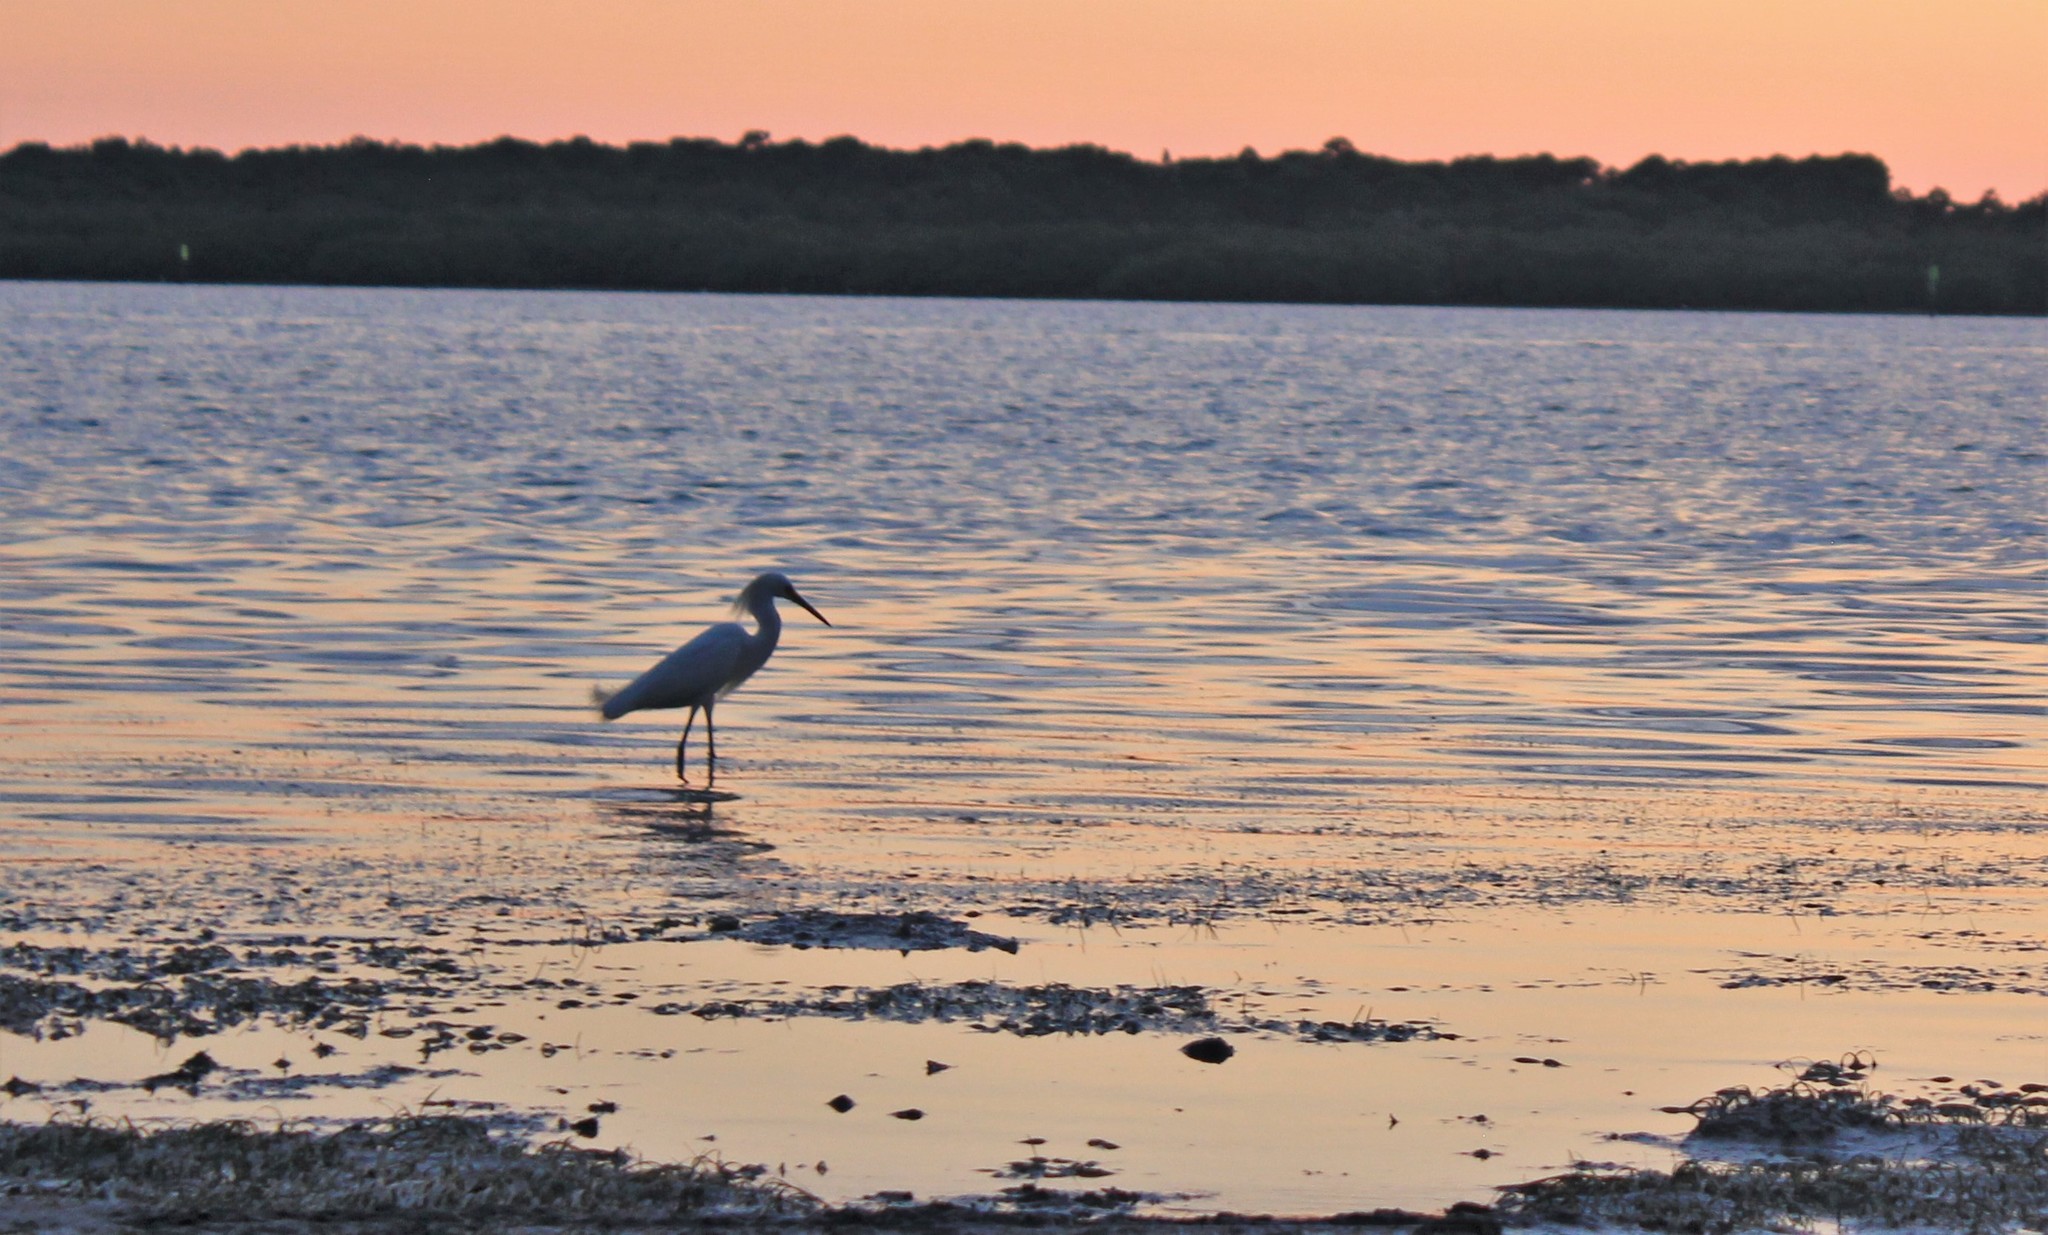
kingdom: Animalia
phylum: Chordata
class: Aves
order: Pelecaniformes
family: Ardeidae
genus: Egretta
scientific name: Egretta thula
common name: Snowy egret
